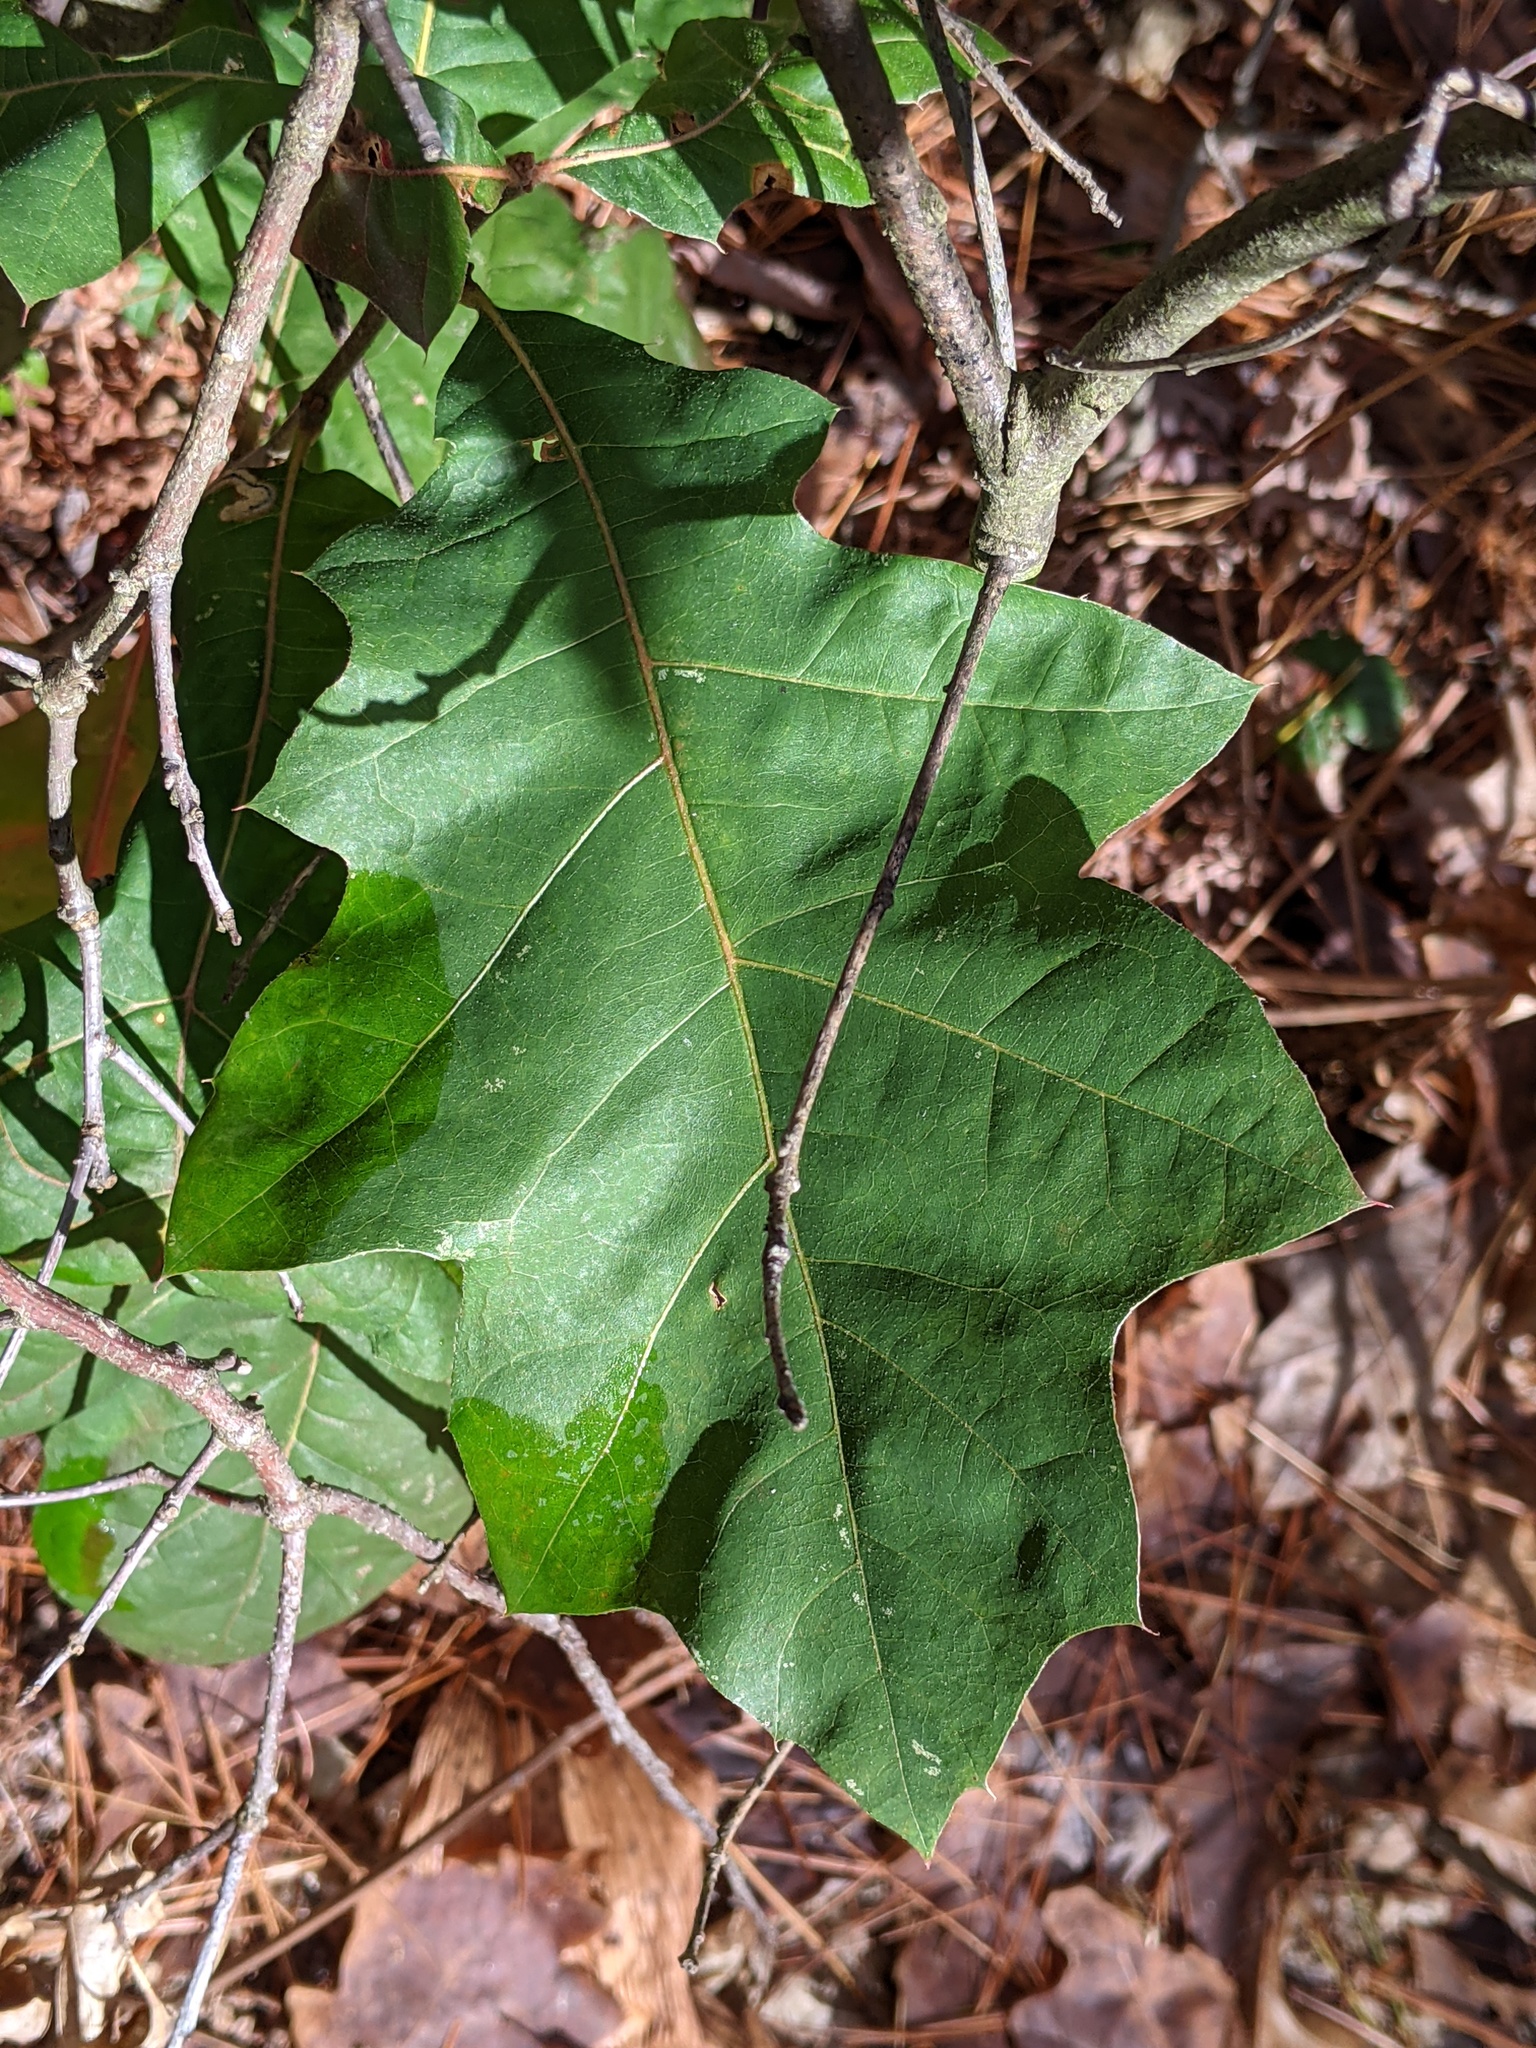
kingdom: Plantae
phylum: Tracheophyta
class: Magnoliopsida
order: Fagales
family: Fagaceae
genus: Quercus
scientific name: Quercus velutina
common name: Black oak
